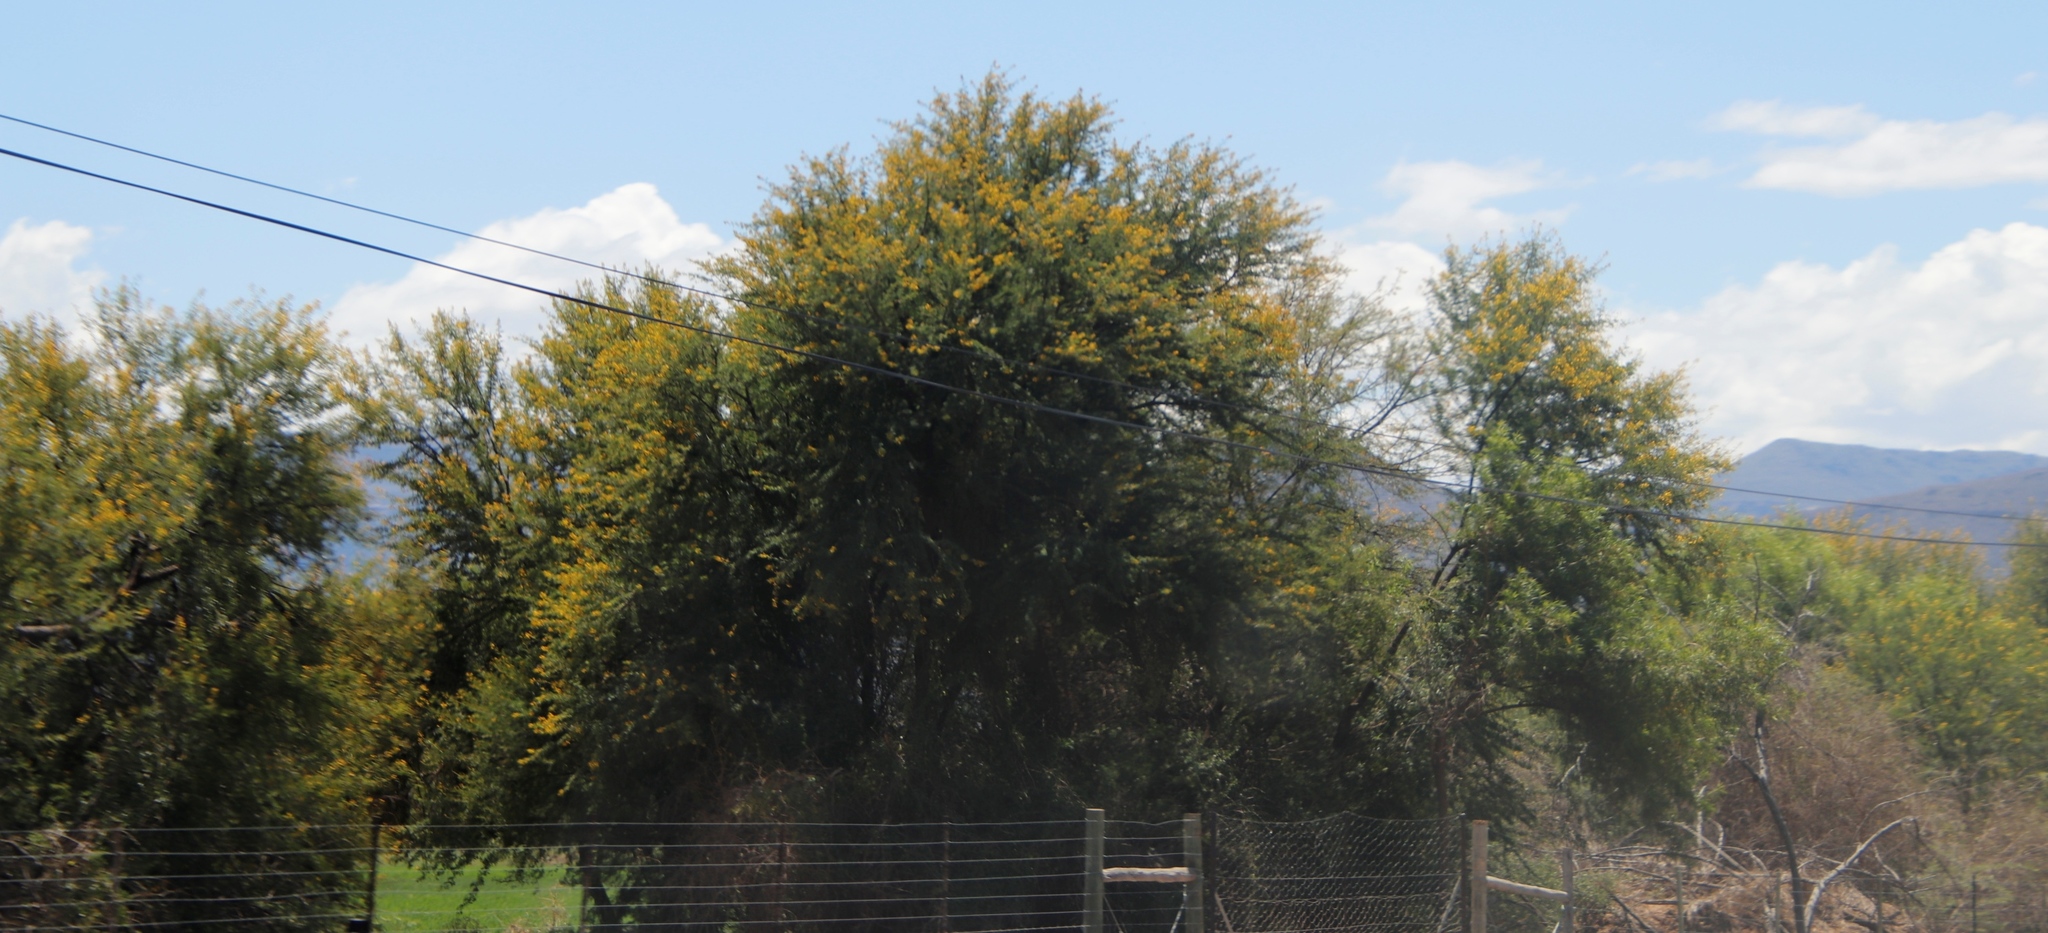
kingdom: Plantae
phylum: Tracheophyta
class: Magnoliopsida
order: Fabales
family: Fabaceae
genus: Vachellia
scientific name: Vachellia karroo
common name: Sweet thorn
